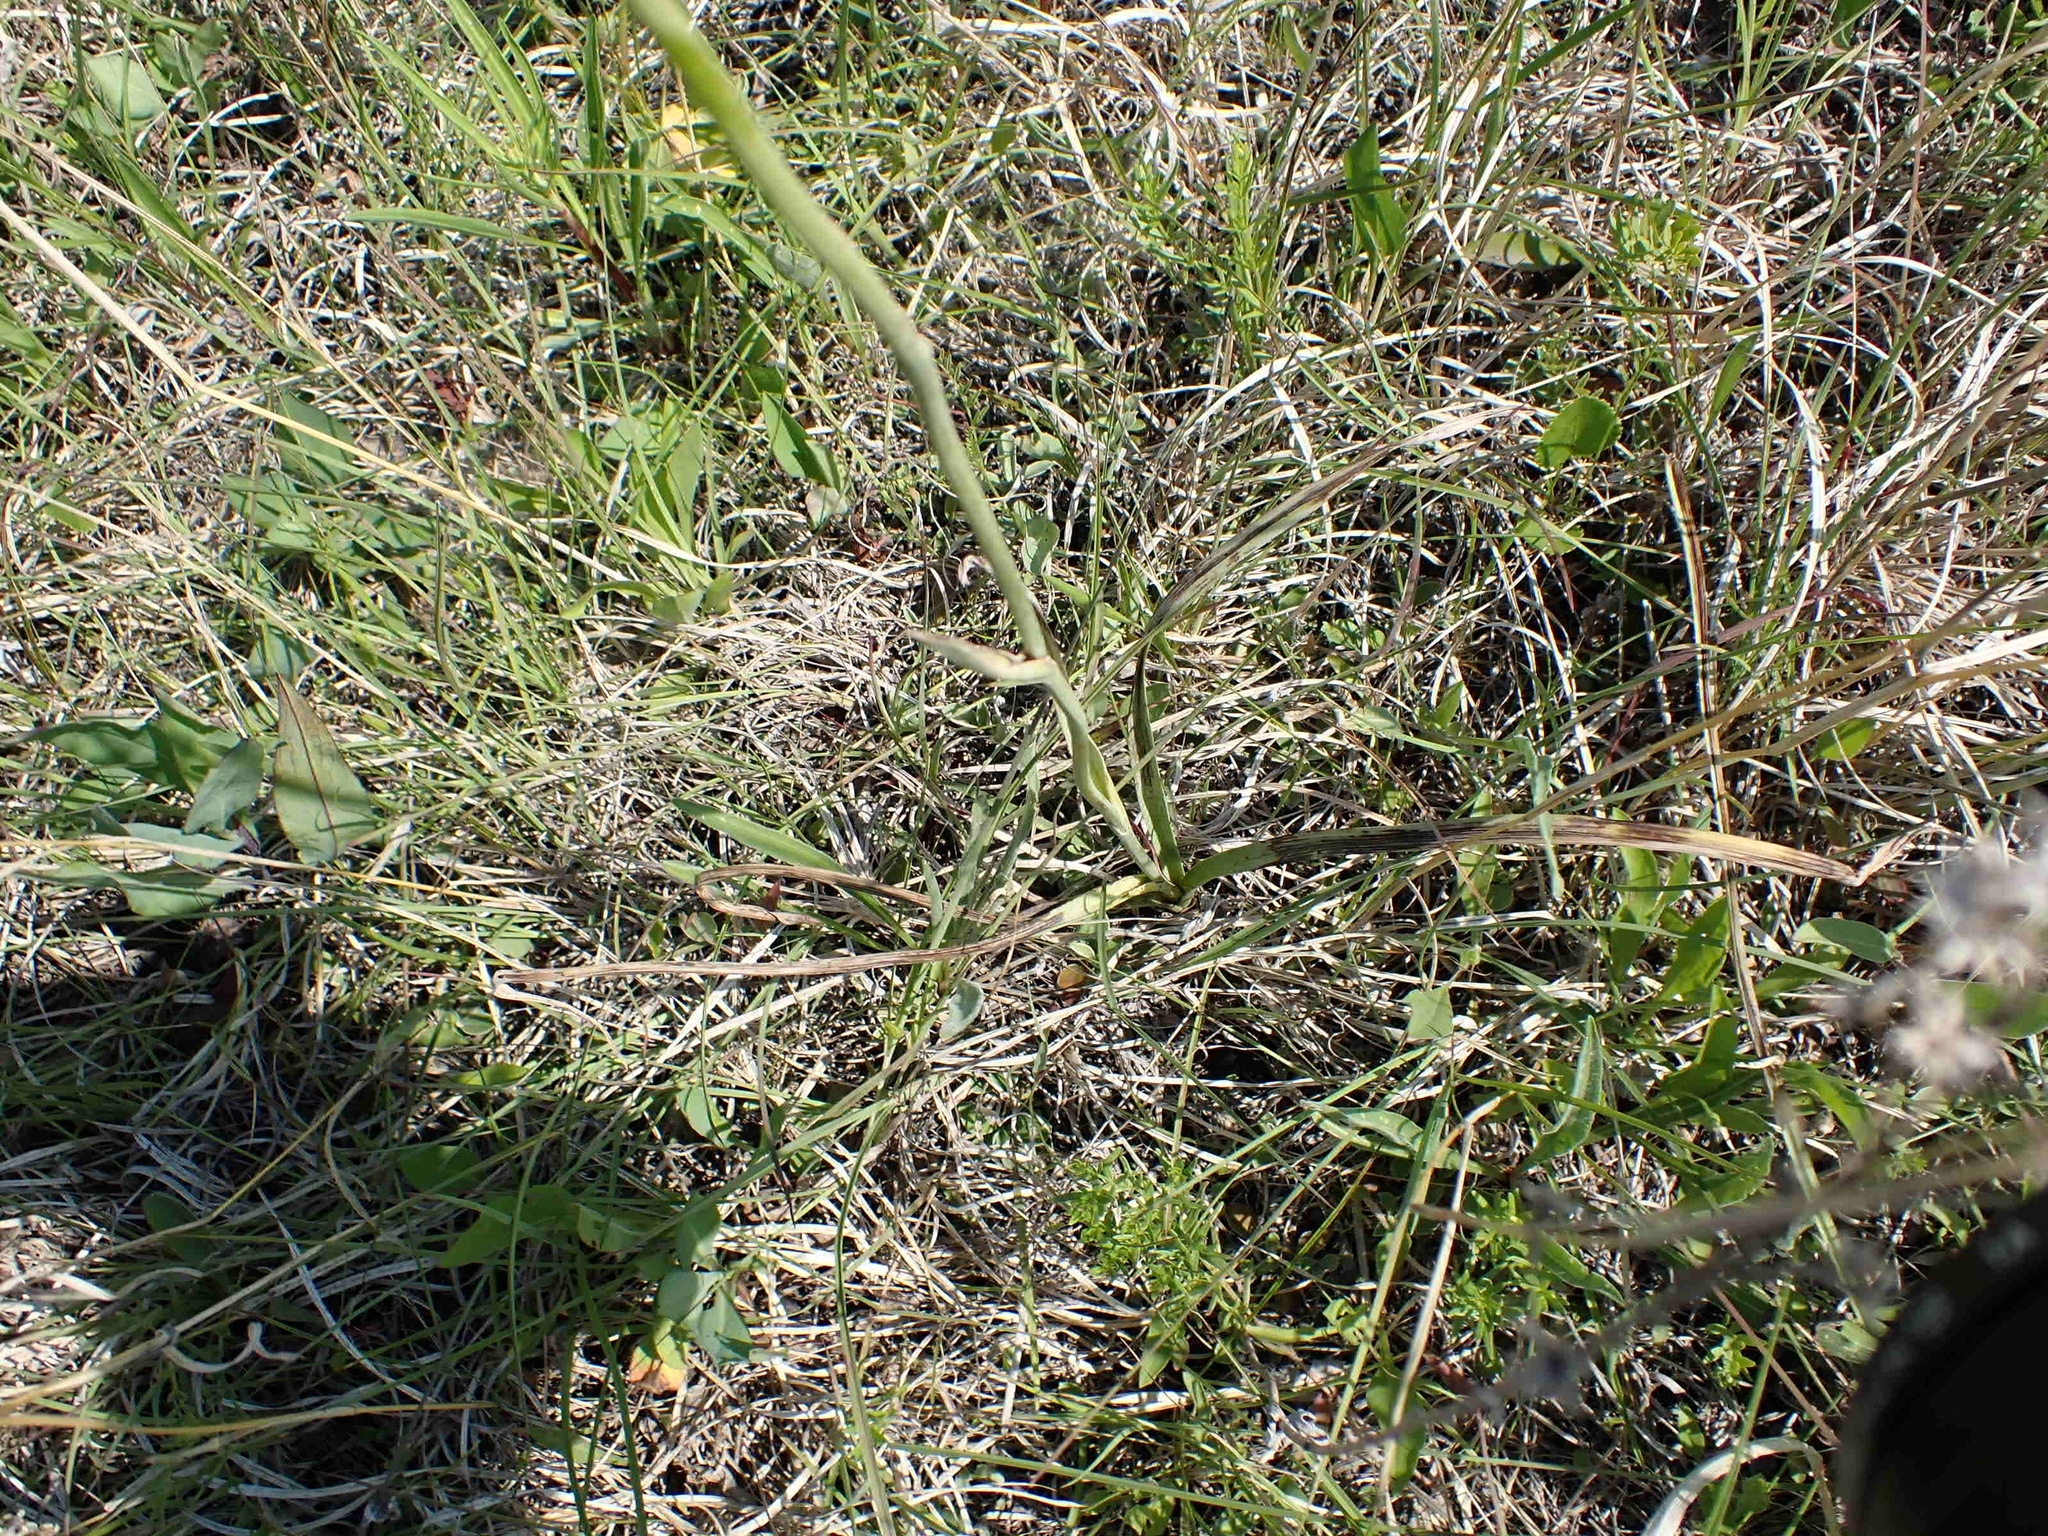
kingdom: Plantae
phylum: Tracheophyta
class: Liliopsida
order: Liliales
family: Melanthiaceae
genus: Anticlea
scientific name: Anticlea elegans
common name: Mountain death camas
